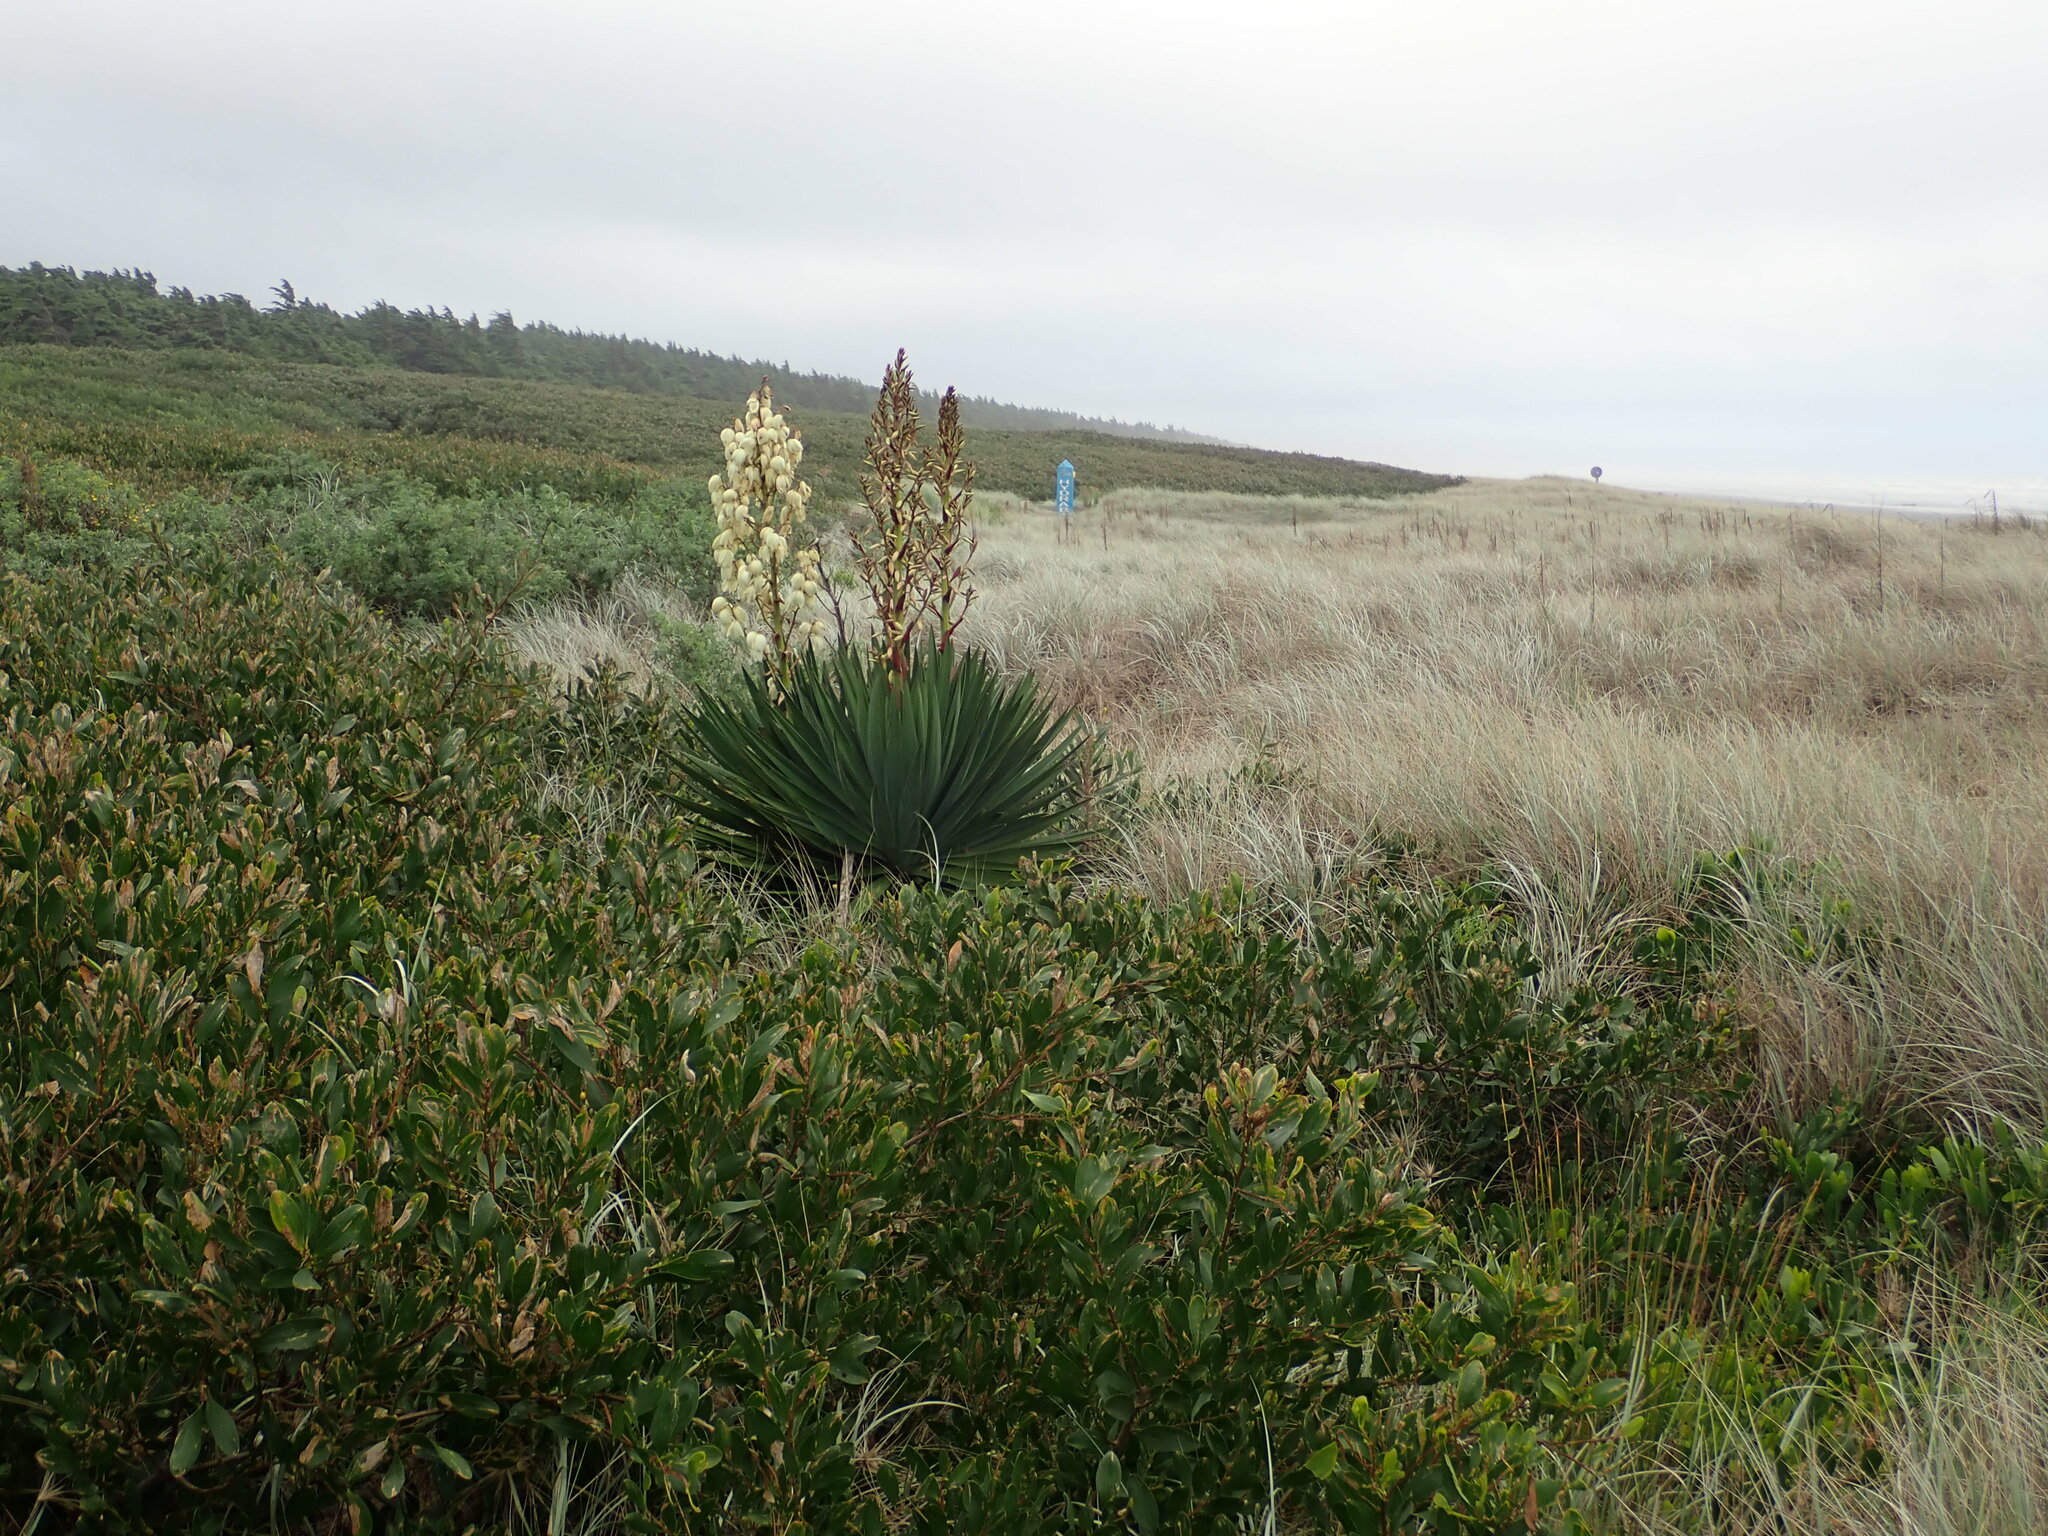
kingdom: Plantae
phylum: Tracheophyta
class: Liliopsida
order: Asparagales
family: Asparagaceae
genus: Yucca
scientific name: Yucca gloriosa
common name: Spanish-dagger
